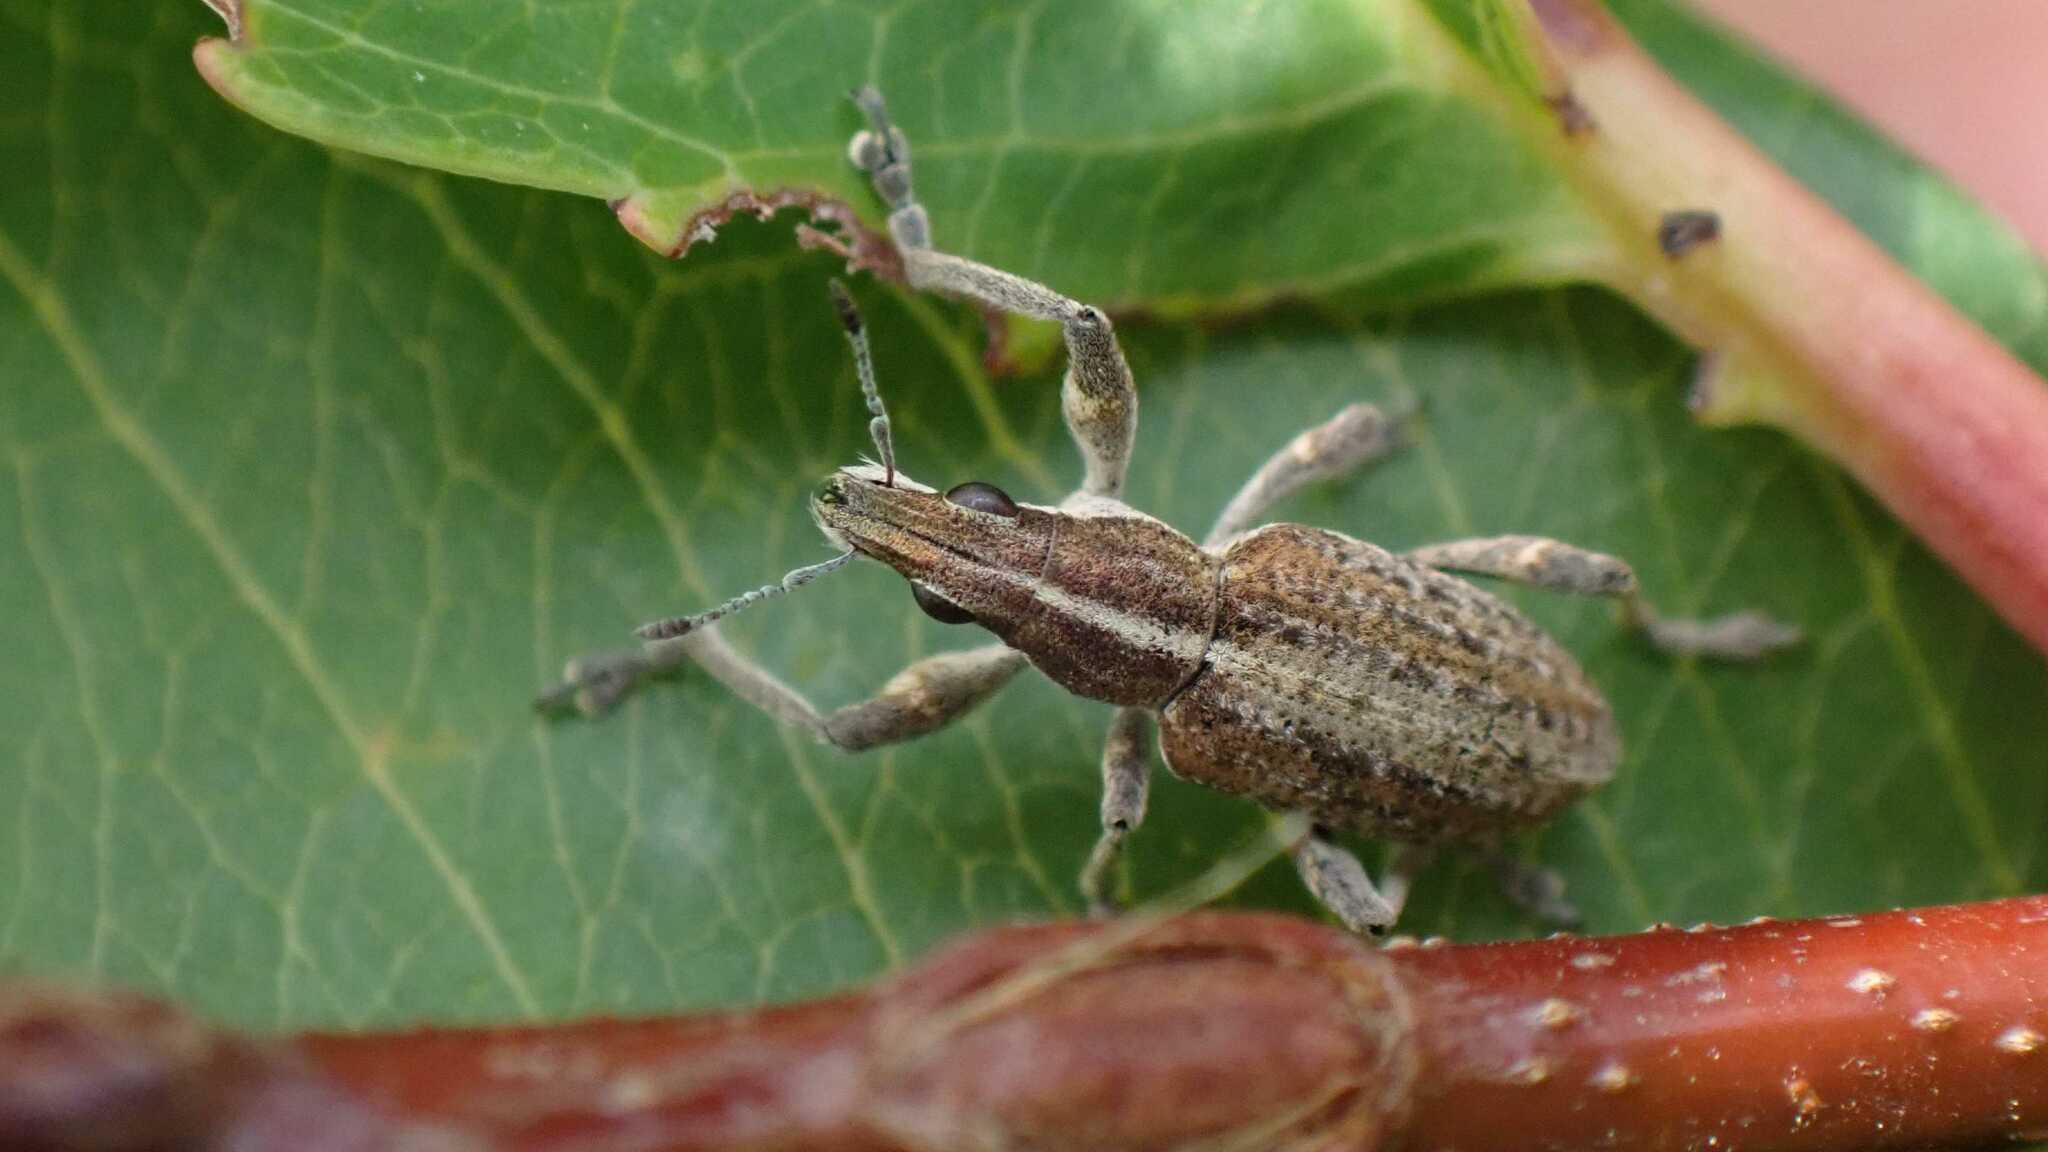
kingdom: Animalia
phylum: Arthropoda
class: Insecta
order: Coleoptera
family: Curculionidae
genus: Charagmus
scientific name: Charagmus gressorius
